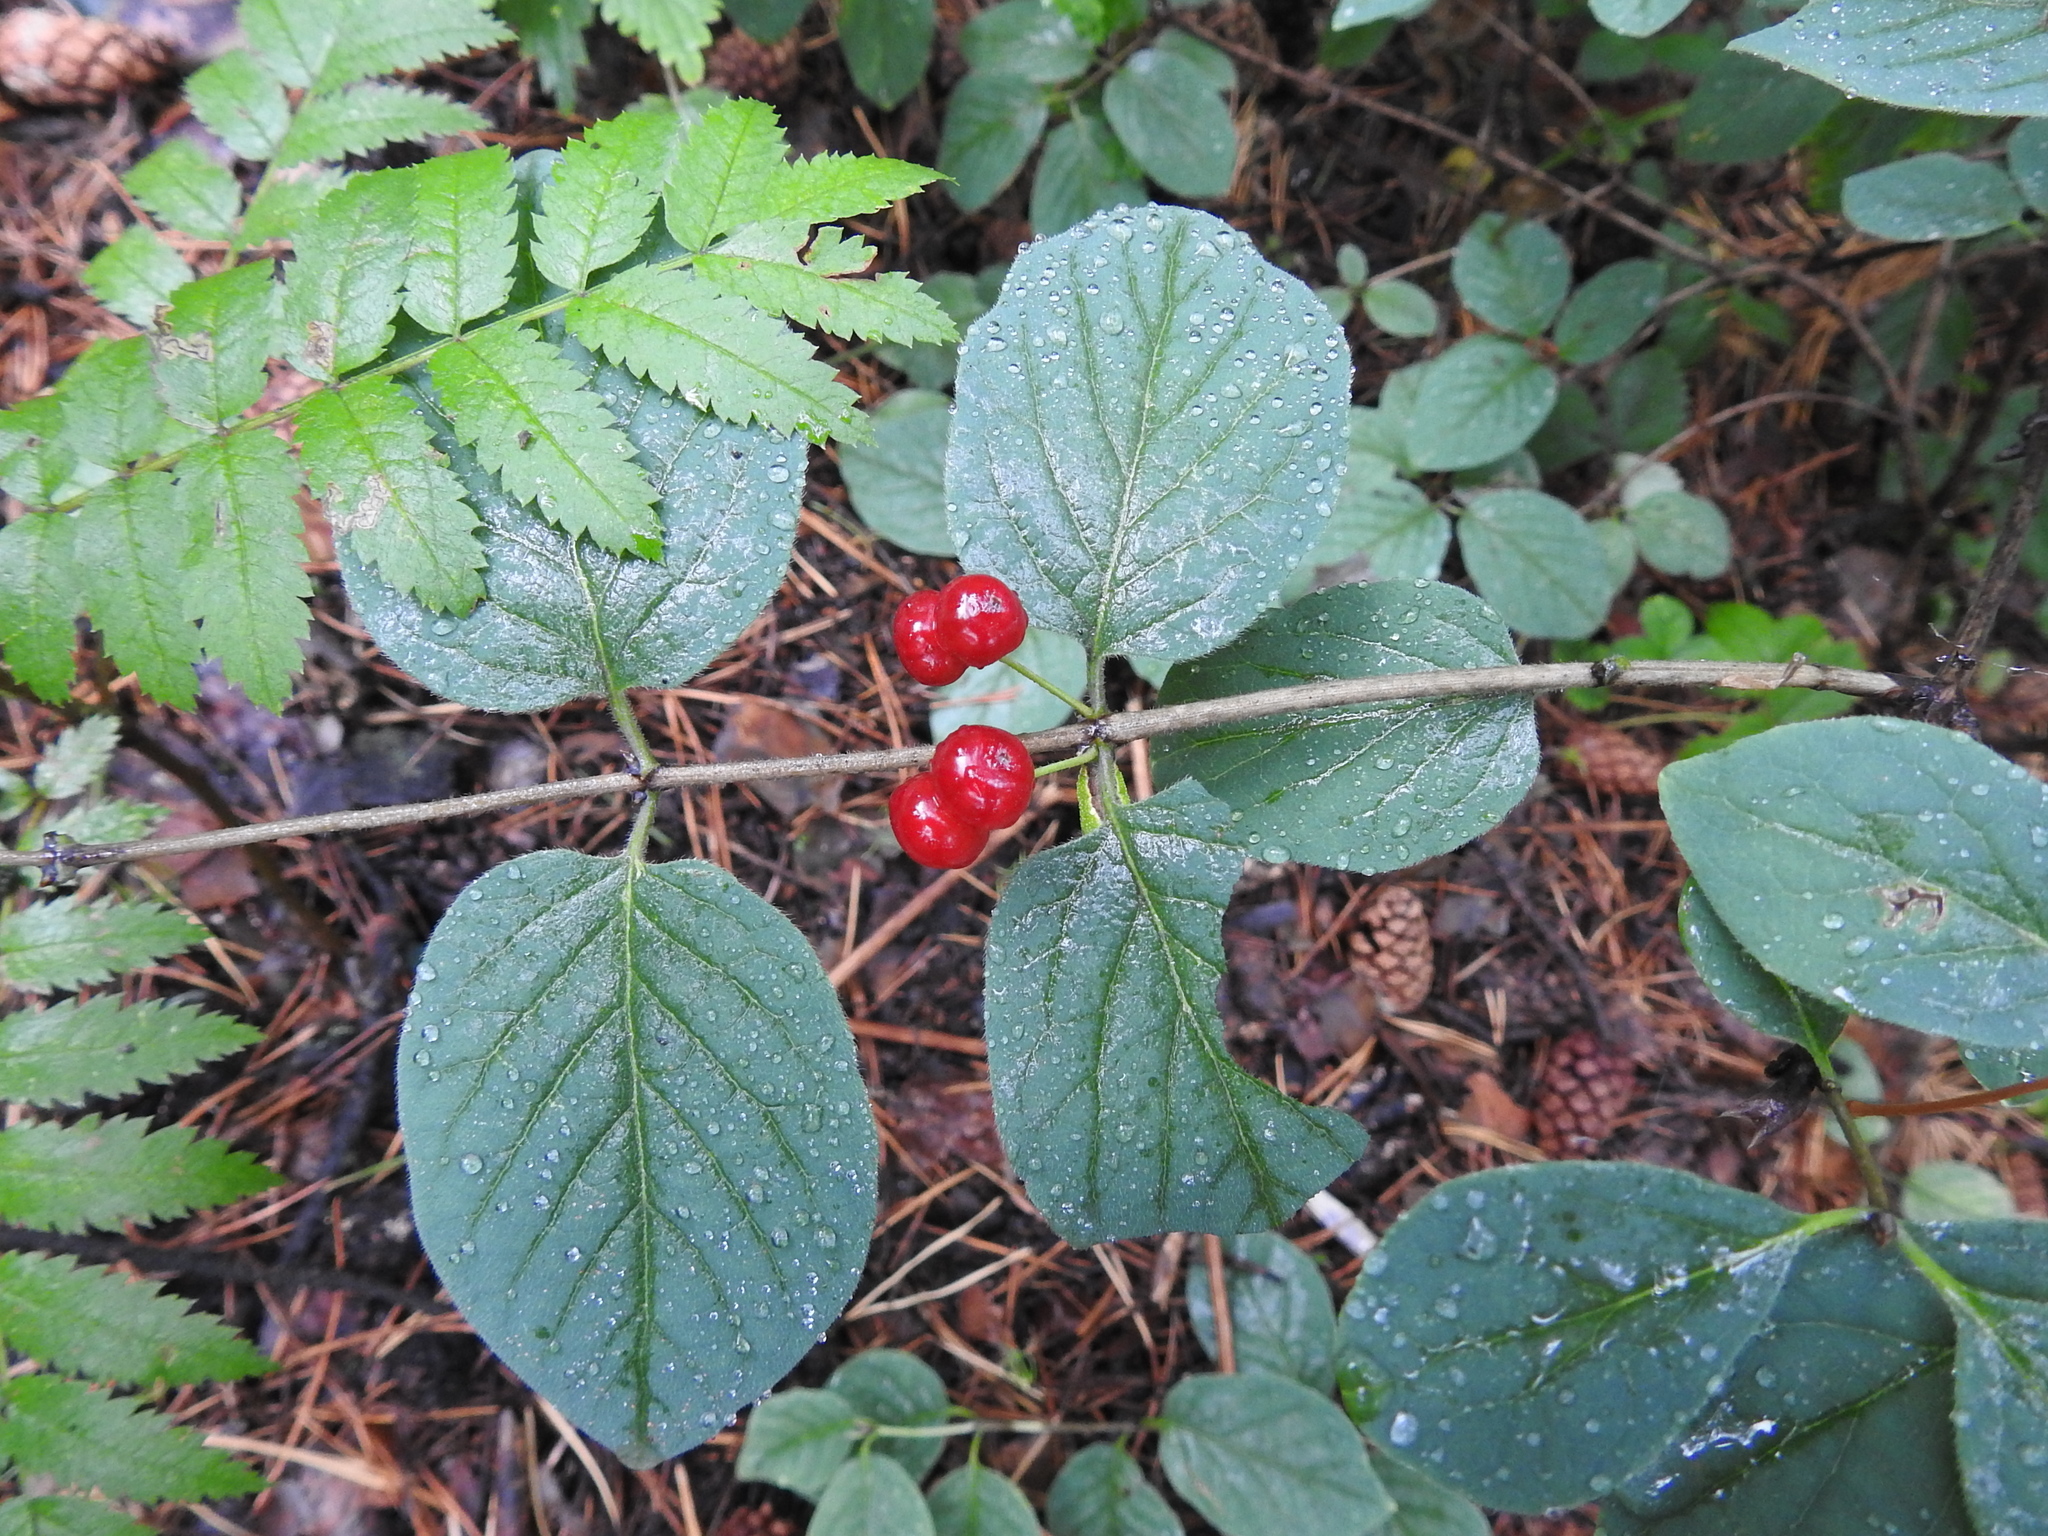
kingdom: Plantae
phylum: Tracheophyta
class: Magnoliopsida
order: Dipsacales
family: Caprifoliaceae
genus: Lonicera
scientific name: Lonicera xylosteum
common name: Fly honeysuckle
